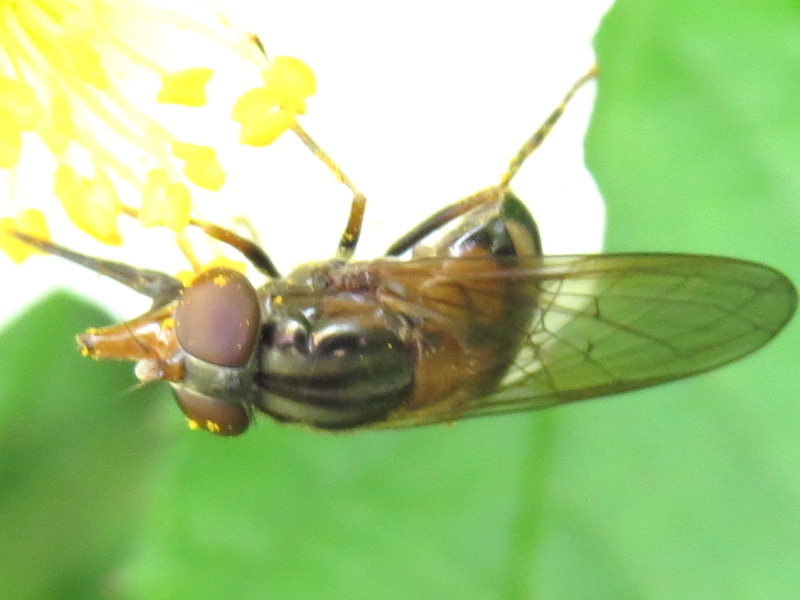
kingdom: Animalia
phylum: Arthropoda
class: Insecta
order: Diptera
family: Syrphidae
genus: Rhingia
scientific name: Rhingia nasica
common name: American snout fly
